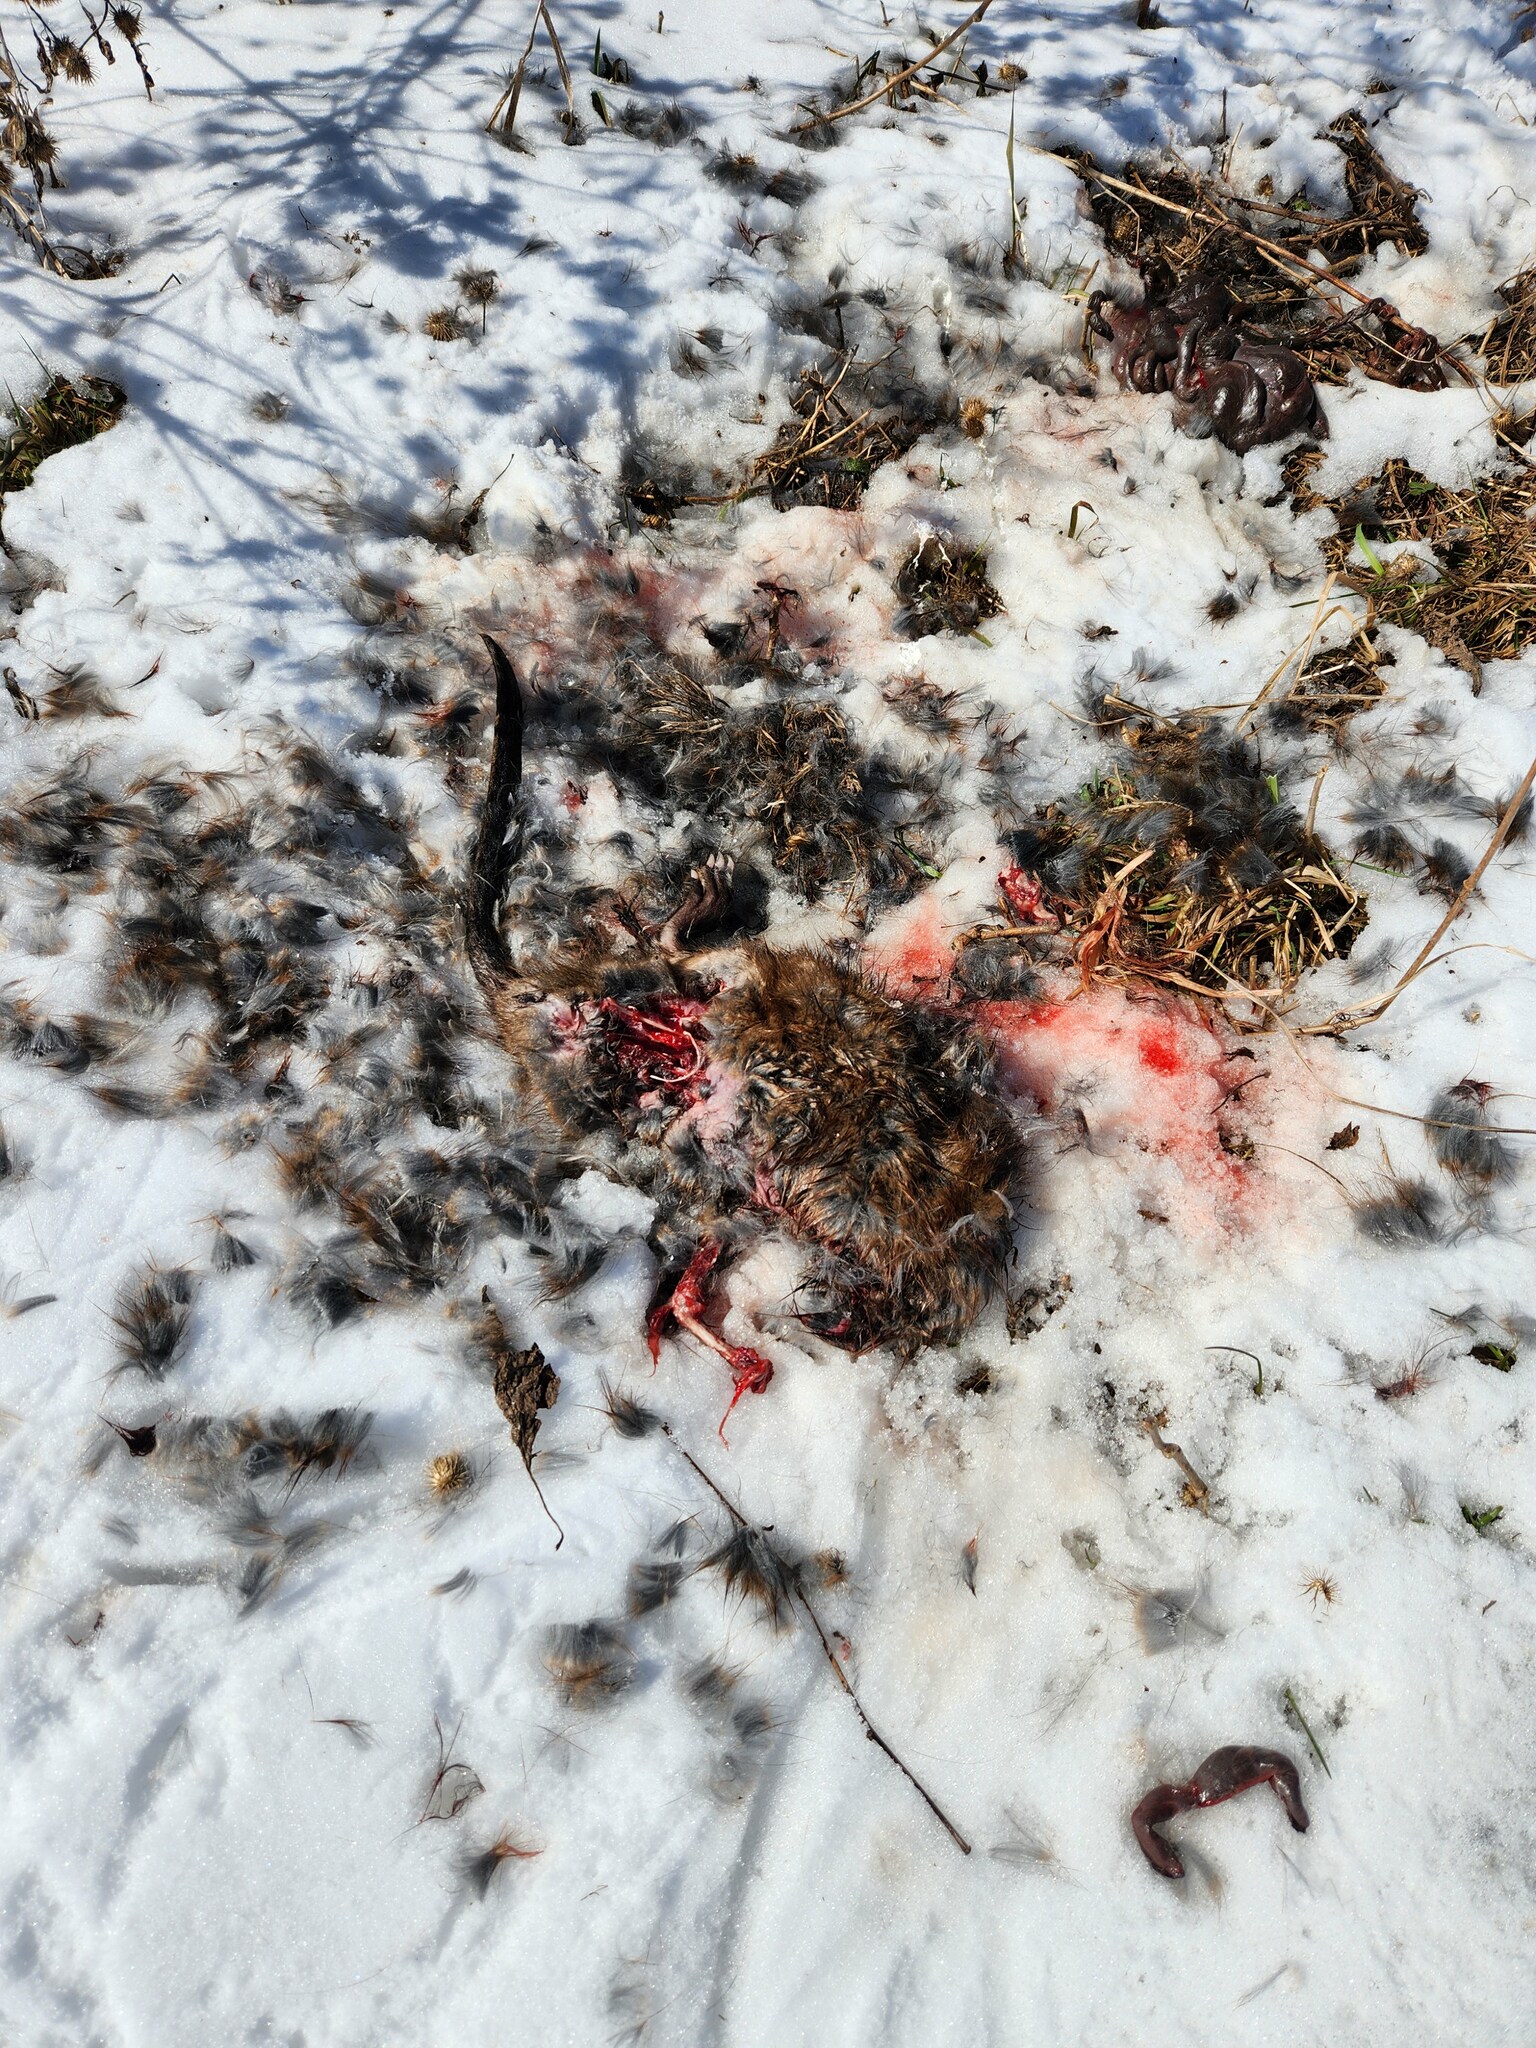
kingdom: Animalia
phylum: Chordata
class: Mammalia
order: Rodentia
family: Cricetidae
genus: Ondatra
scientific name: Ondatra zibethicus
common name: Muskrat
